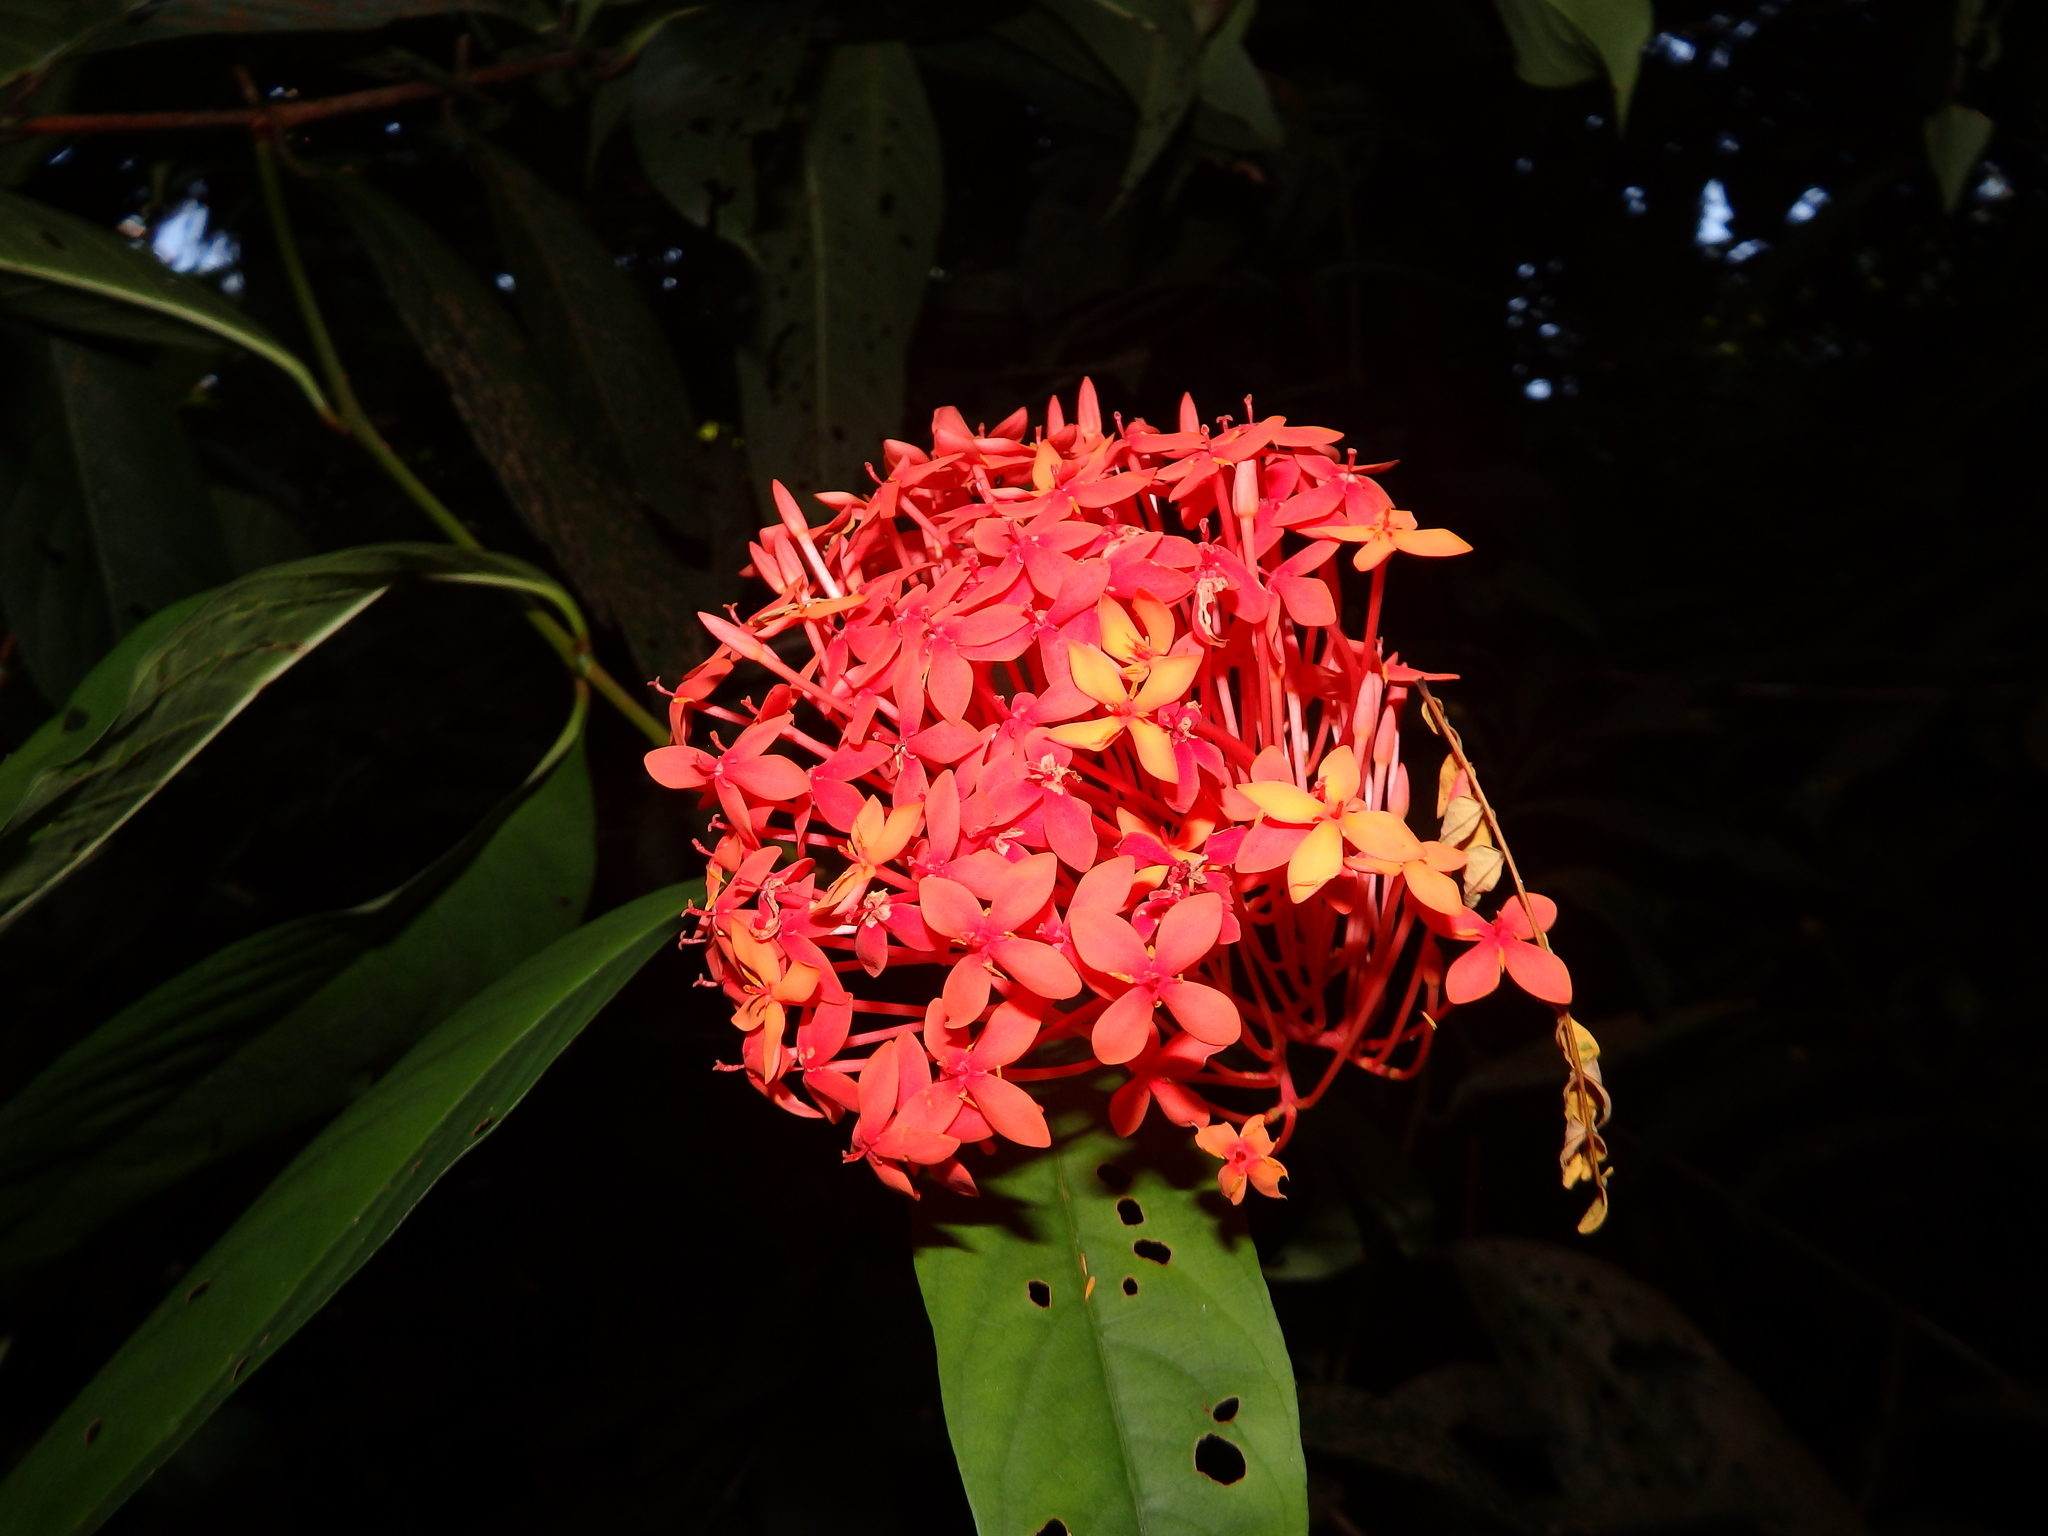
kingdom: Plantae
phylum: Tracheophyta
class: Magnoliopsida
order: Gentianales
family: Rubiaceae
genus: Ixora
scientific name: Ixora javanica
